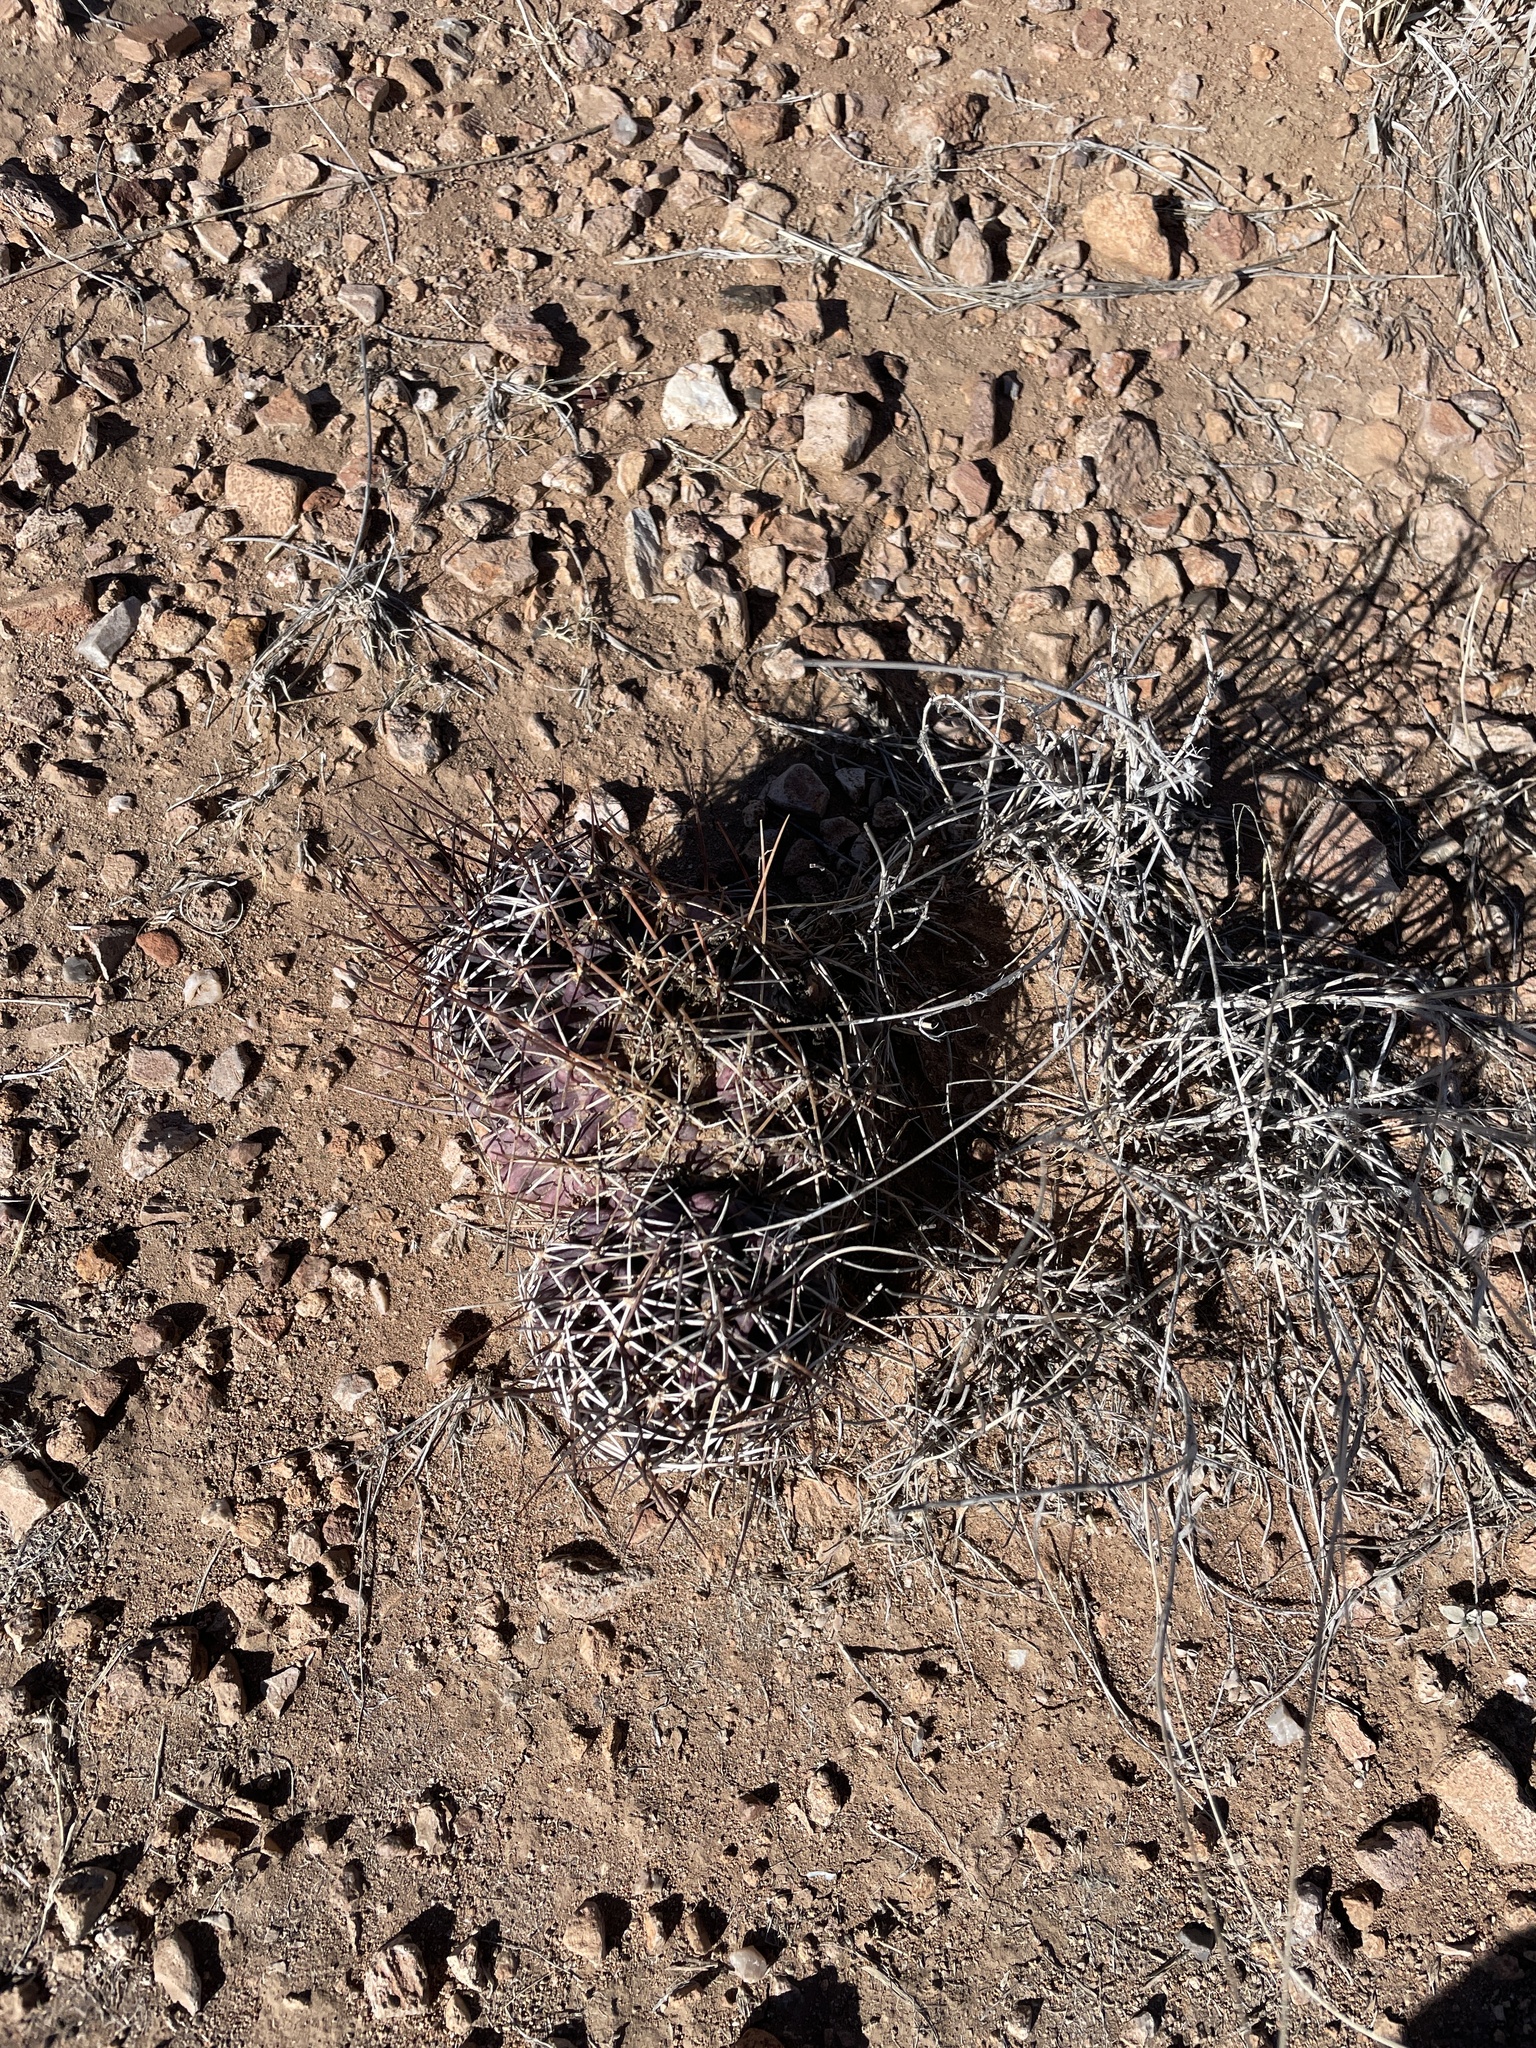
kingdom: Plantae
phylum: Tracheophyta
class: Magnoliopsida
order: Caryophyllales
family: Cactaceae
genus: Echinocereus
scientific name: Echinocereus fendleri
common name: Fendler's hedgehog cactus
